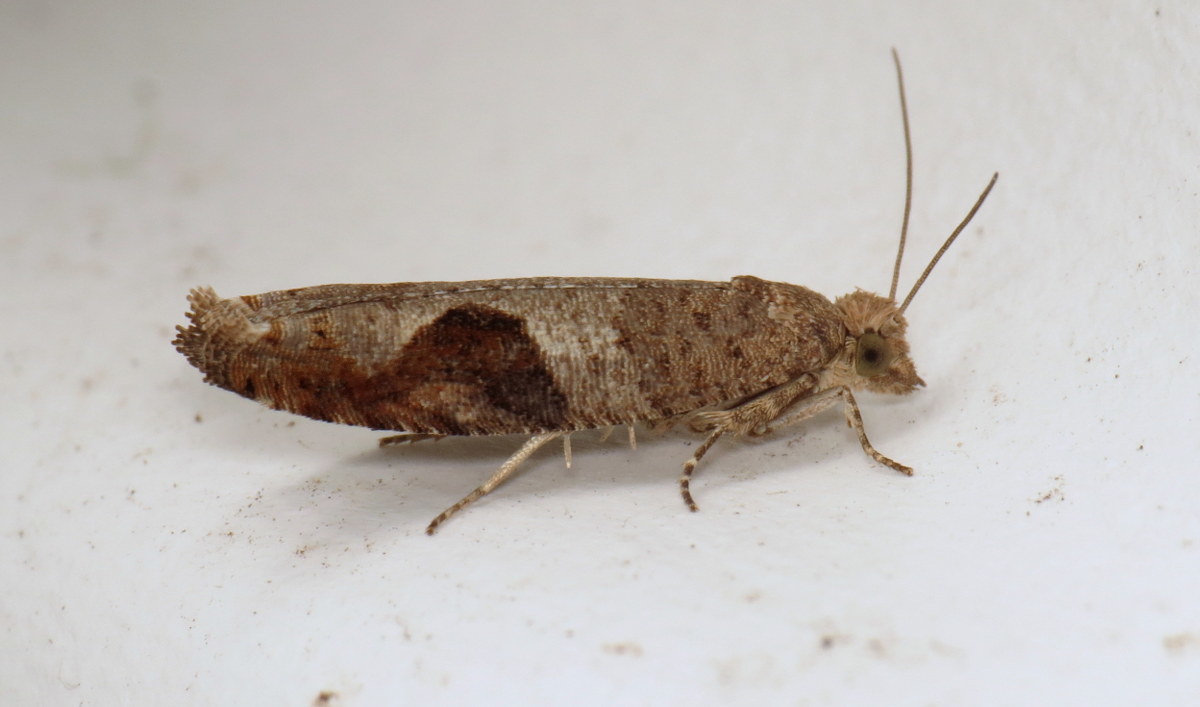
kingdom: Animalia
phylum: Arthropoda
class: Insecta
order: Lepidoptera
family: Tortricidae
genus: Pseudexentera
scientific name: Pseudexentera virginiana
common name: Virginia pseudexentera moth
